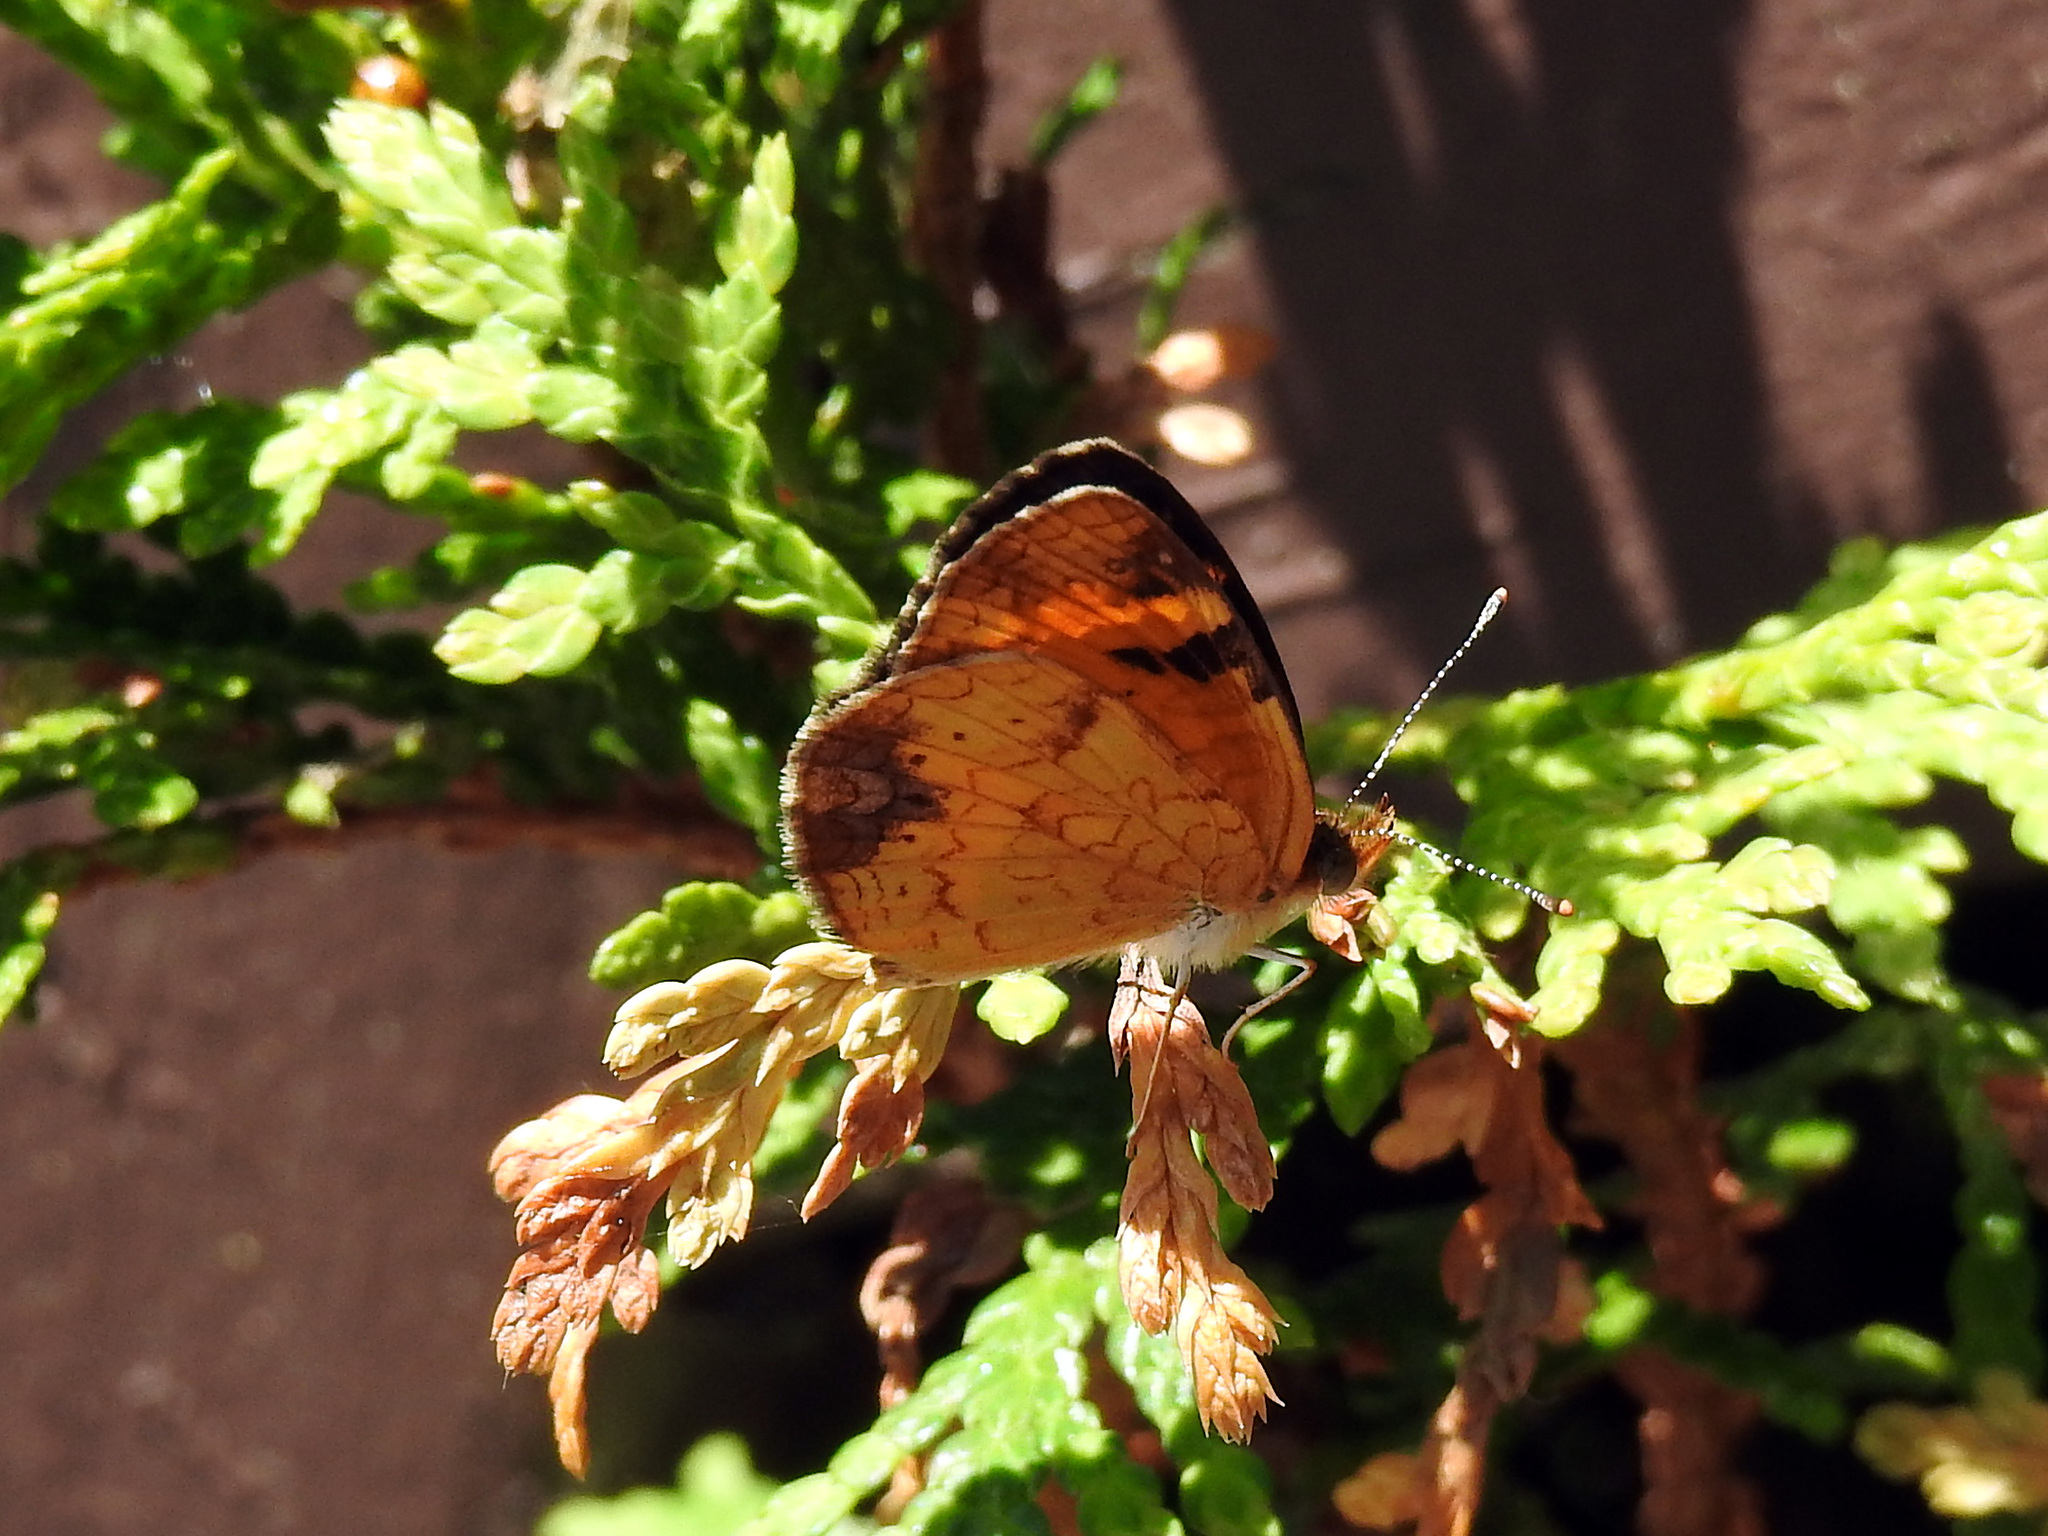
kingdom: Animalia
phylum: Arthropoda
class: Insecta
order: Lepidoptera
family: Nymphalidae
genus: Phyciodes
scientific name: Phyciodes tharos
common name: Pearl crescent
